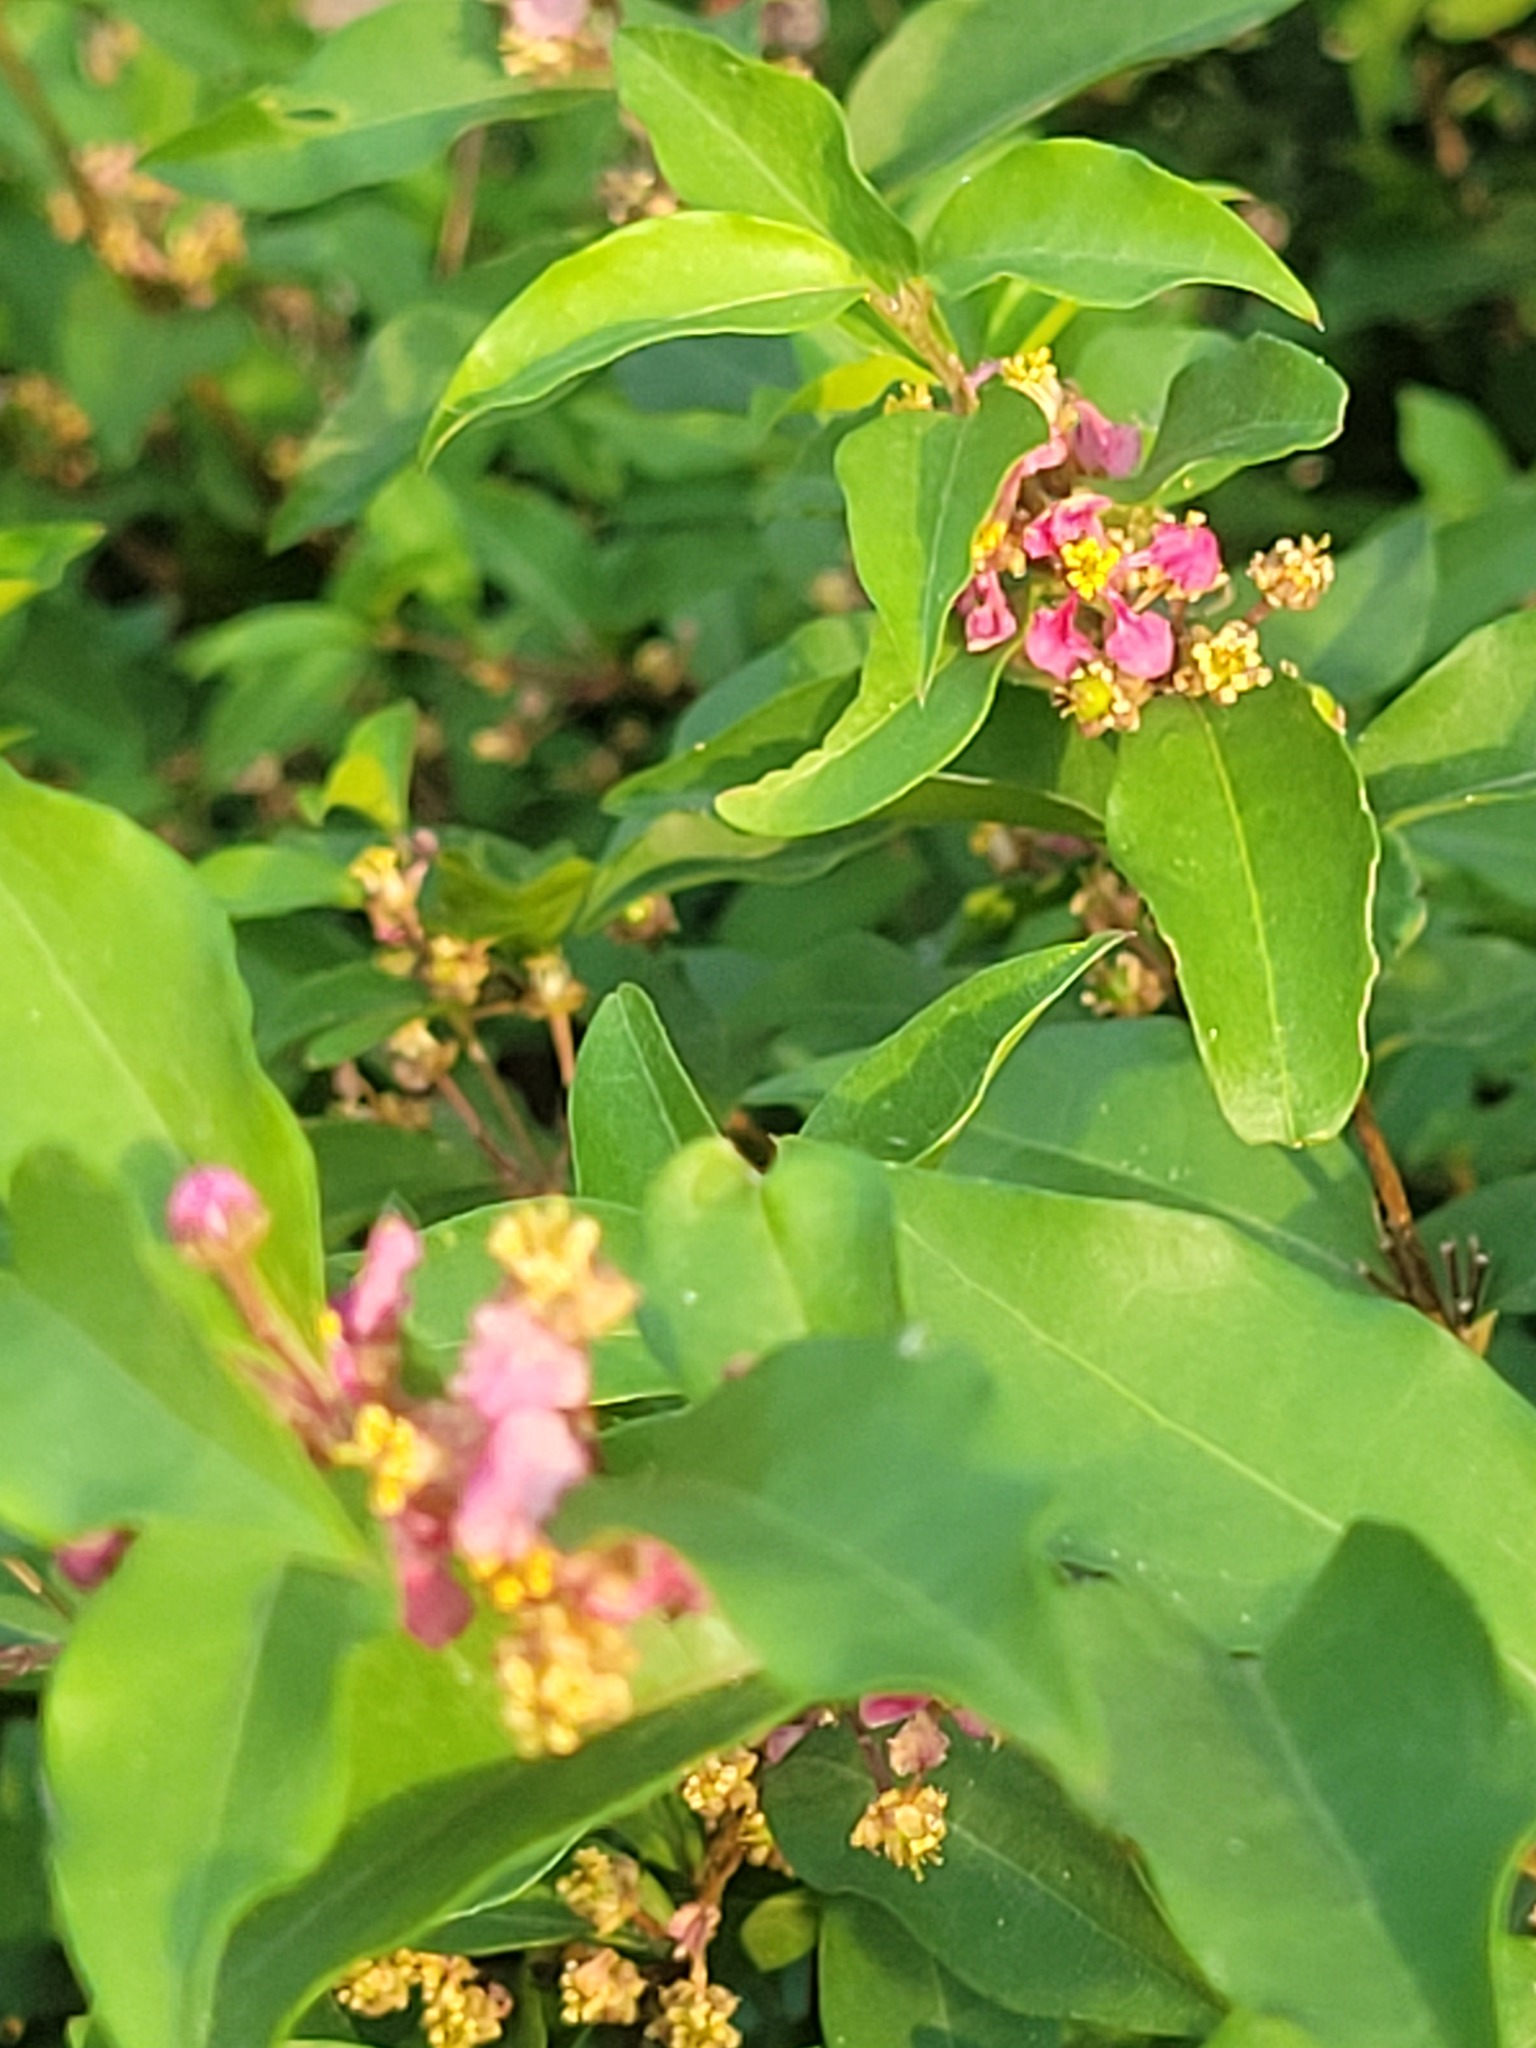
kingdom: Plantae
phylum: Tracheophyta
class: Magnoliopsida
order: Malpighiales
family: Malpighiaceae
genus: Malpighia
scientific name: Malpighia glabra
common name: Barbados cherry
